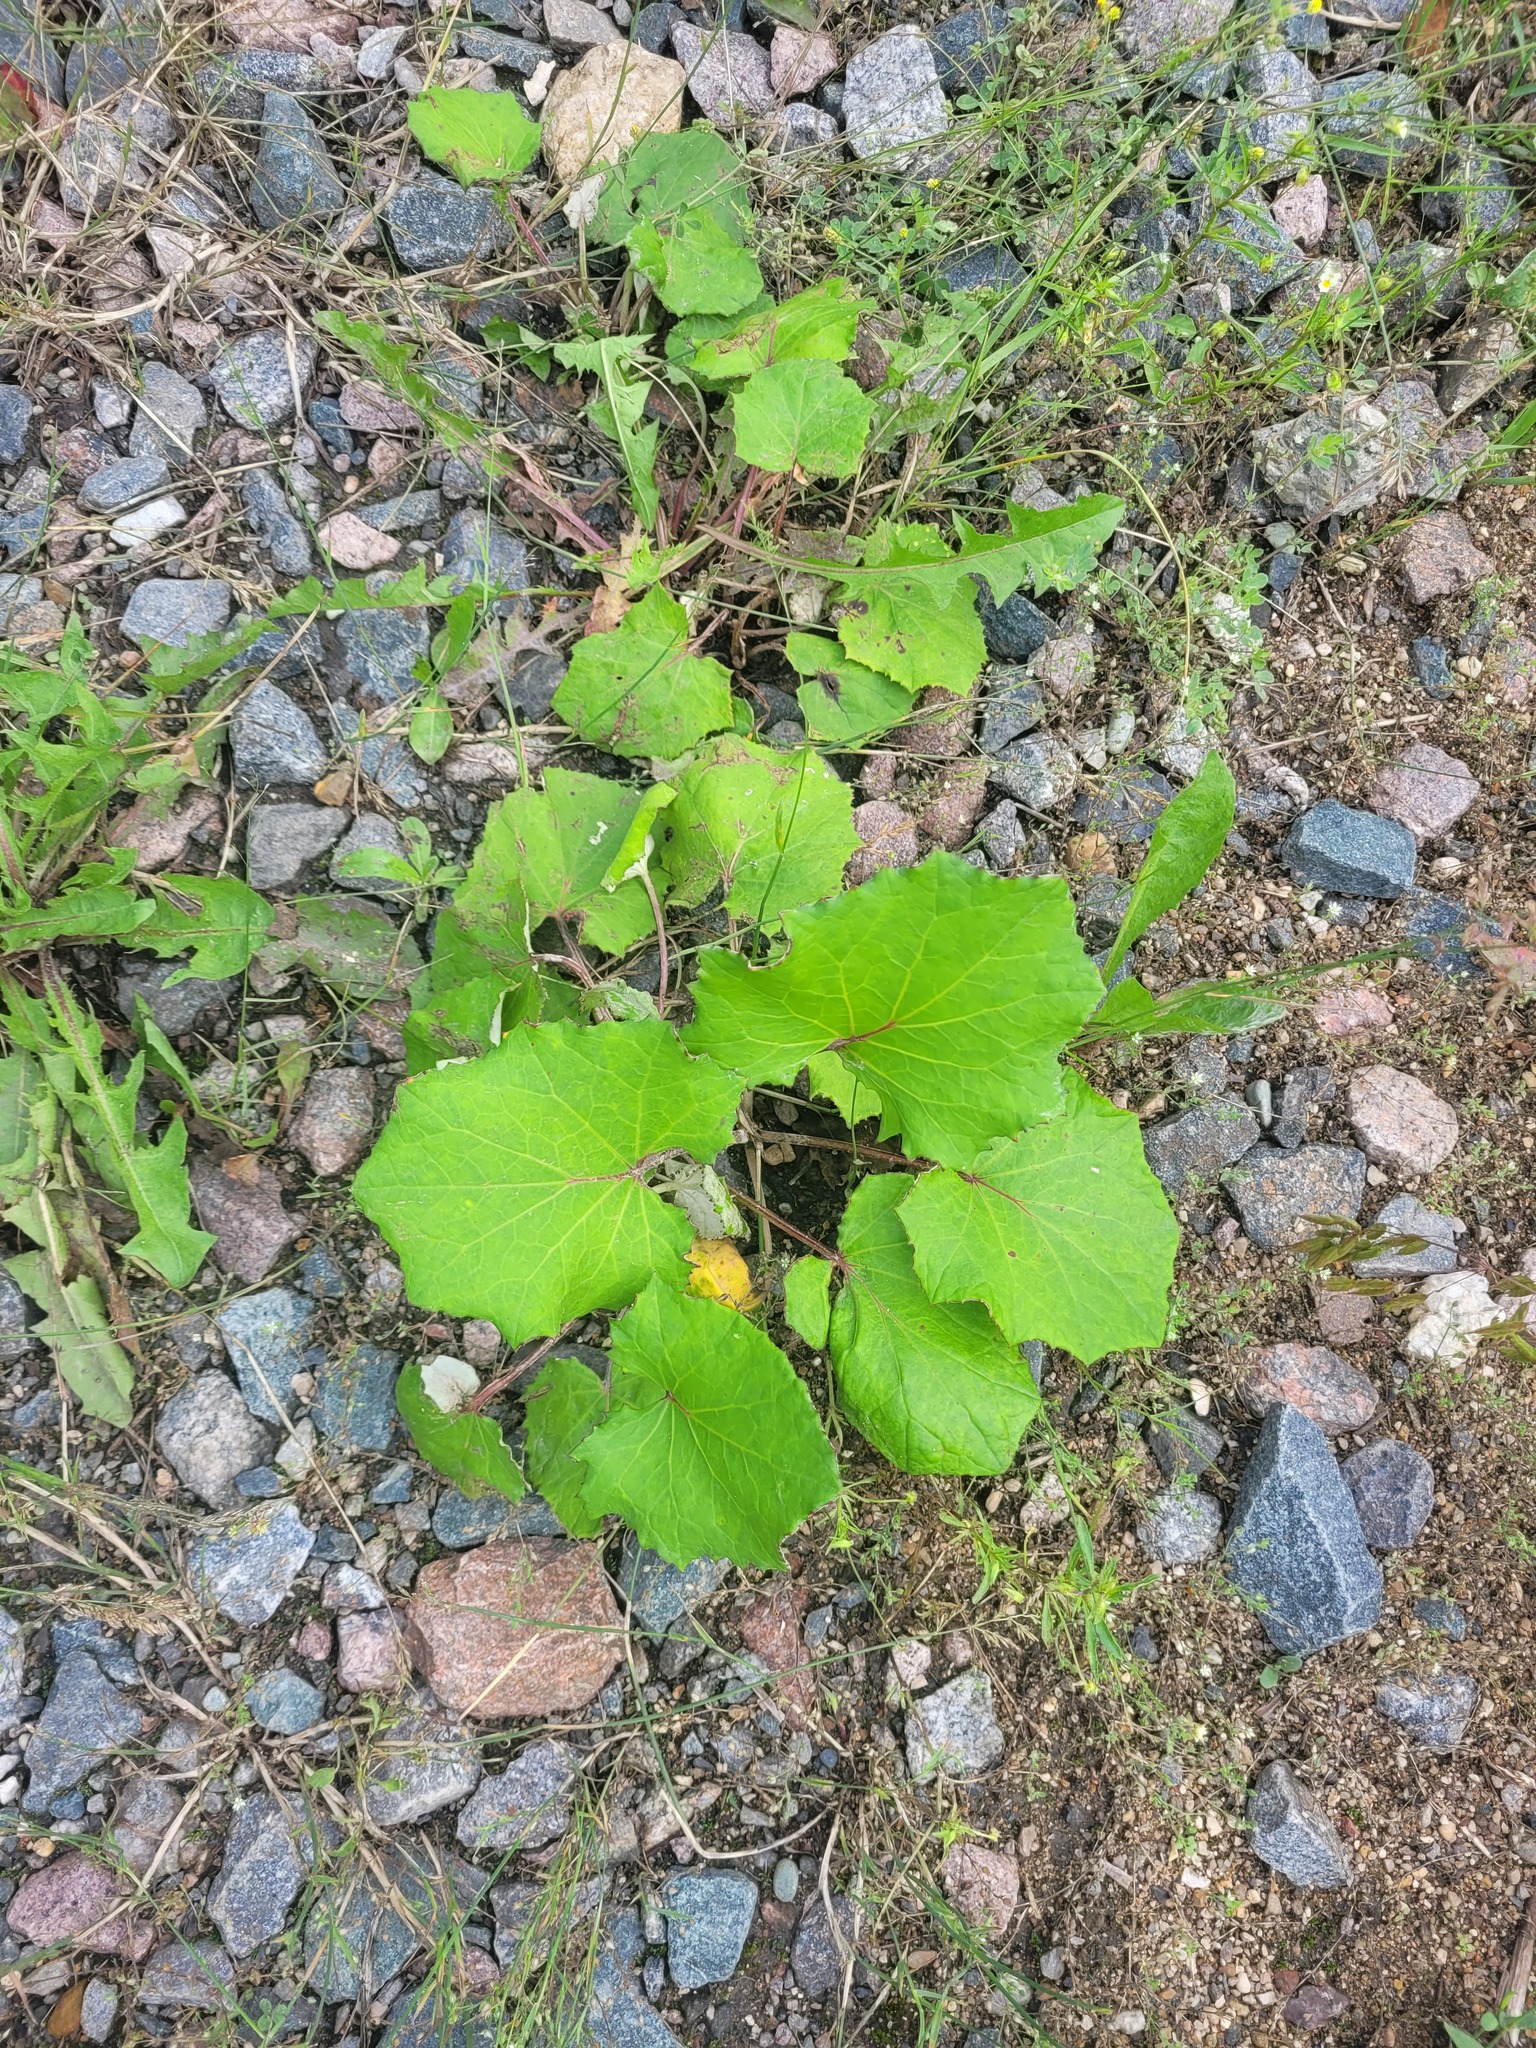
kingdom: Plantae
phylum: Tracheophyta
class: Magnoliopsida
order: Asterales
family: Asteraceae
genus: Tussilago
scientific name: Tussilago farfara
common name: Coltsfoot
